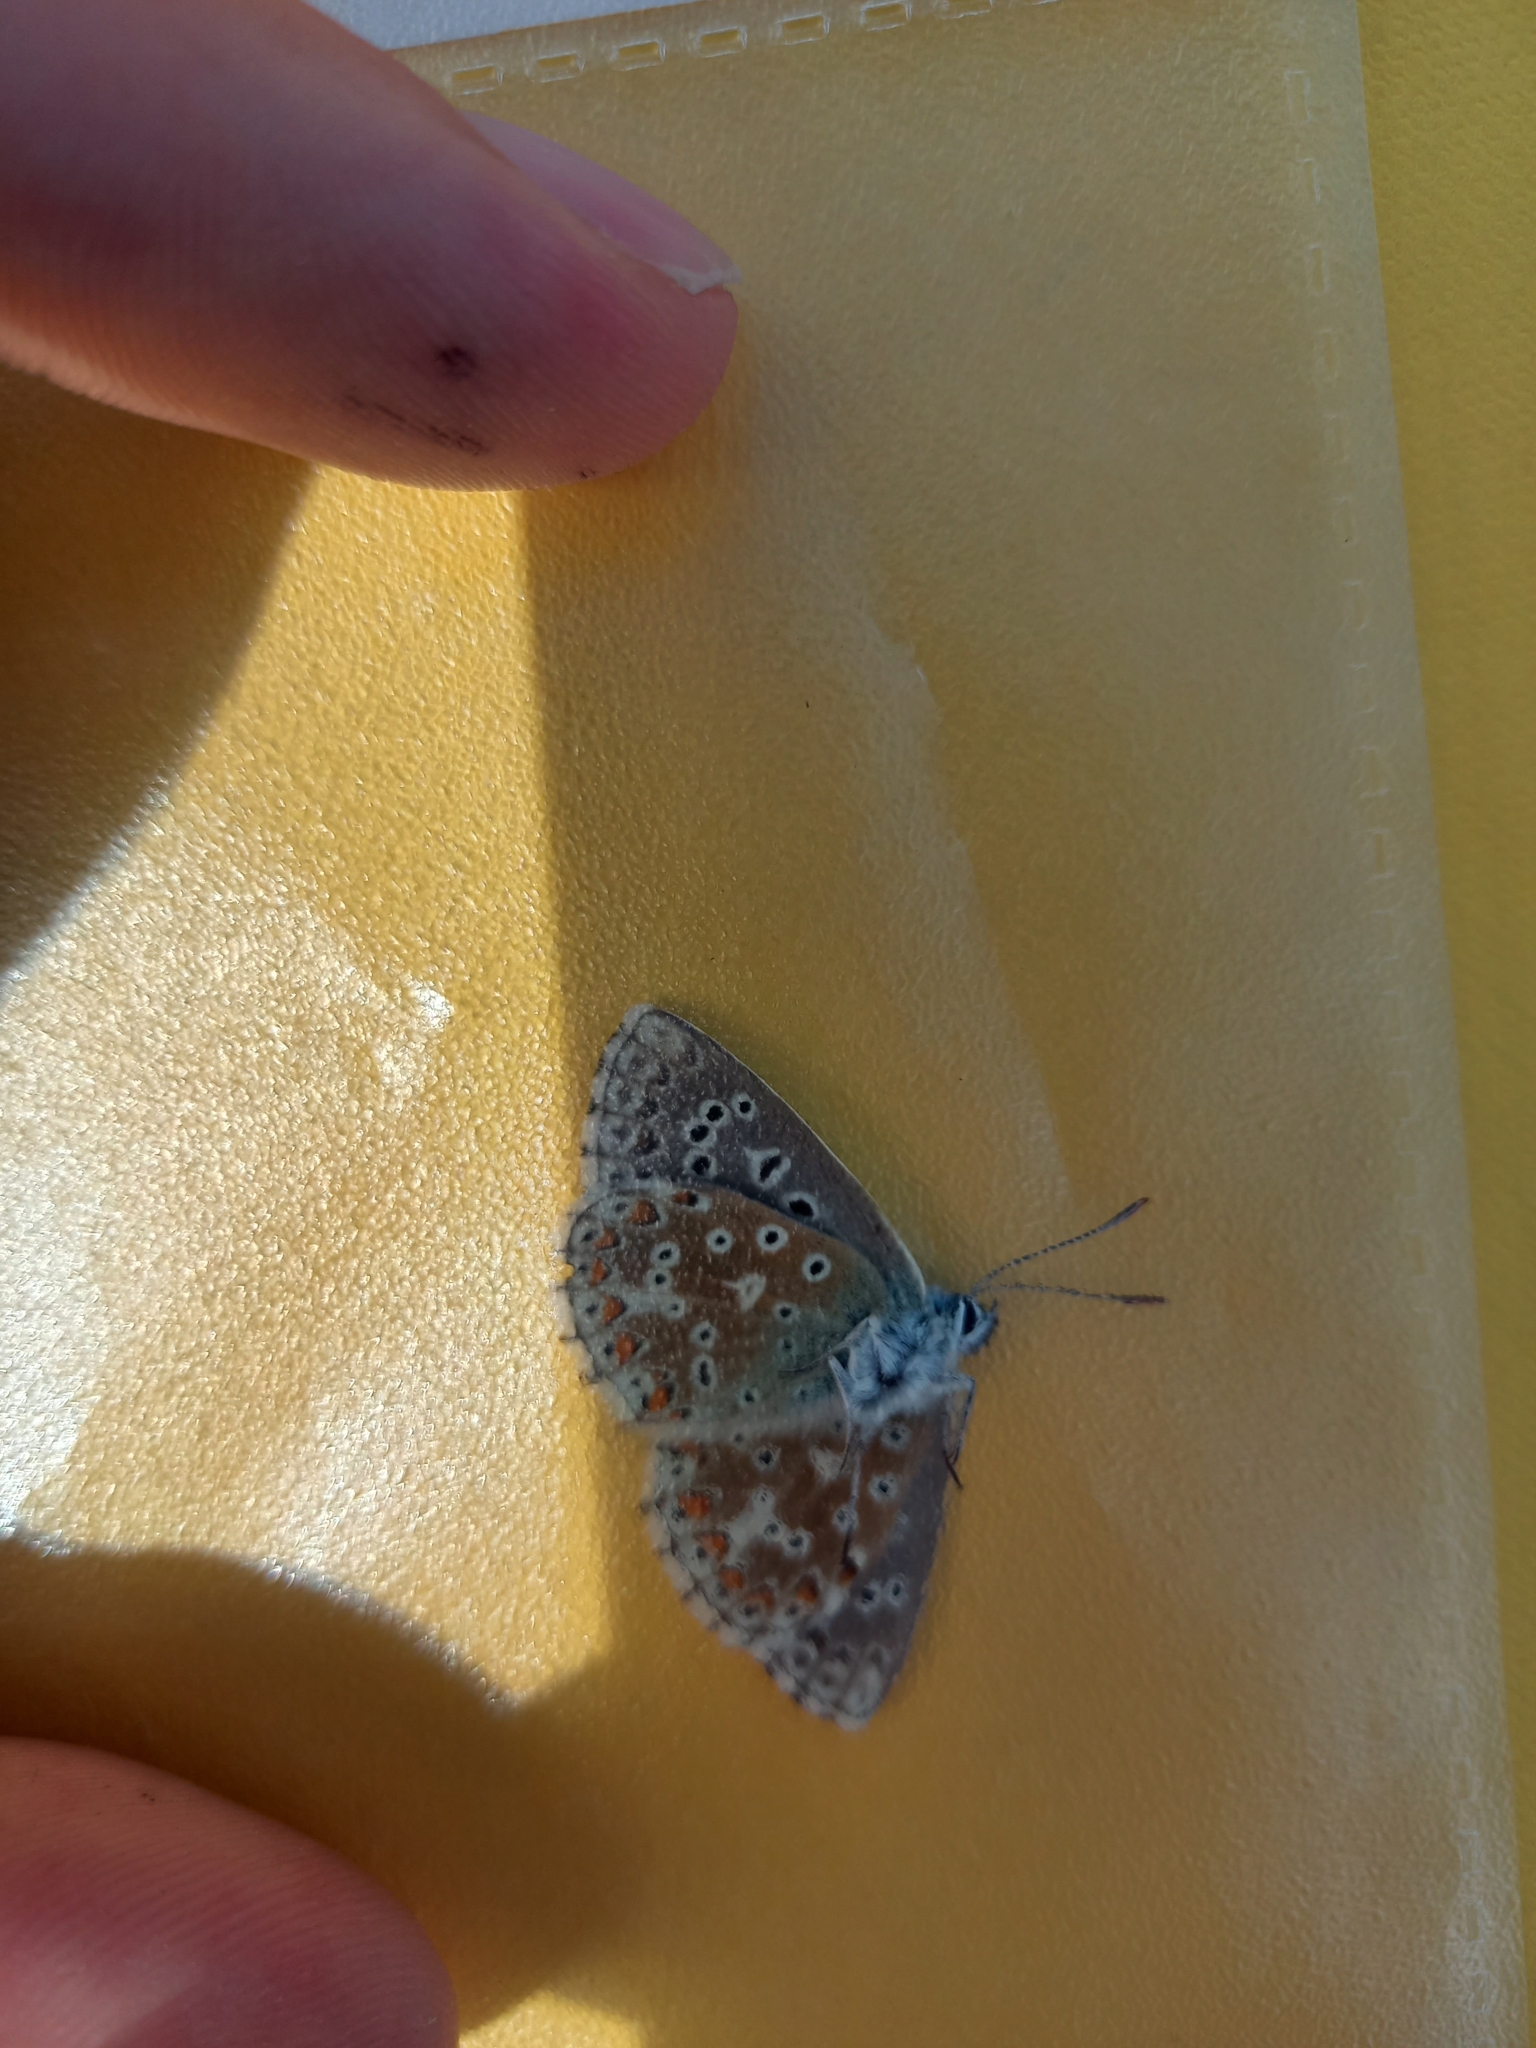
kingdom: Animalia
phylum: Arthropoda
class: Insecta
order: Lepidoptera
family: Lycaenidae
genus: Lysandra
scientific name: Lysandra bellargus
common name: Adonis blue
